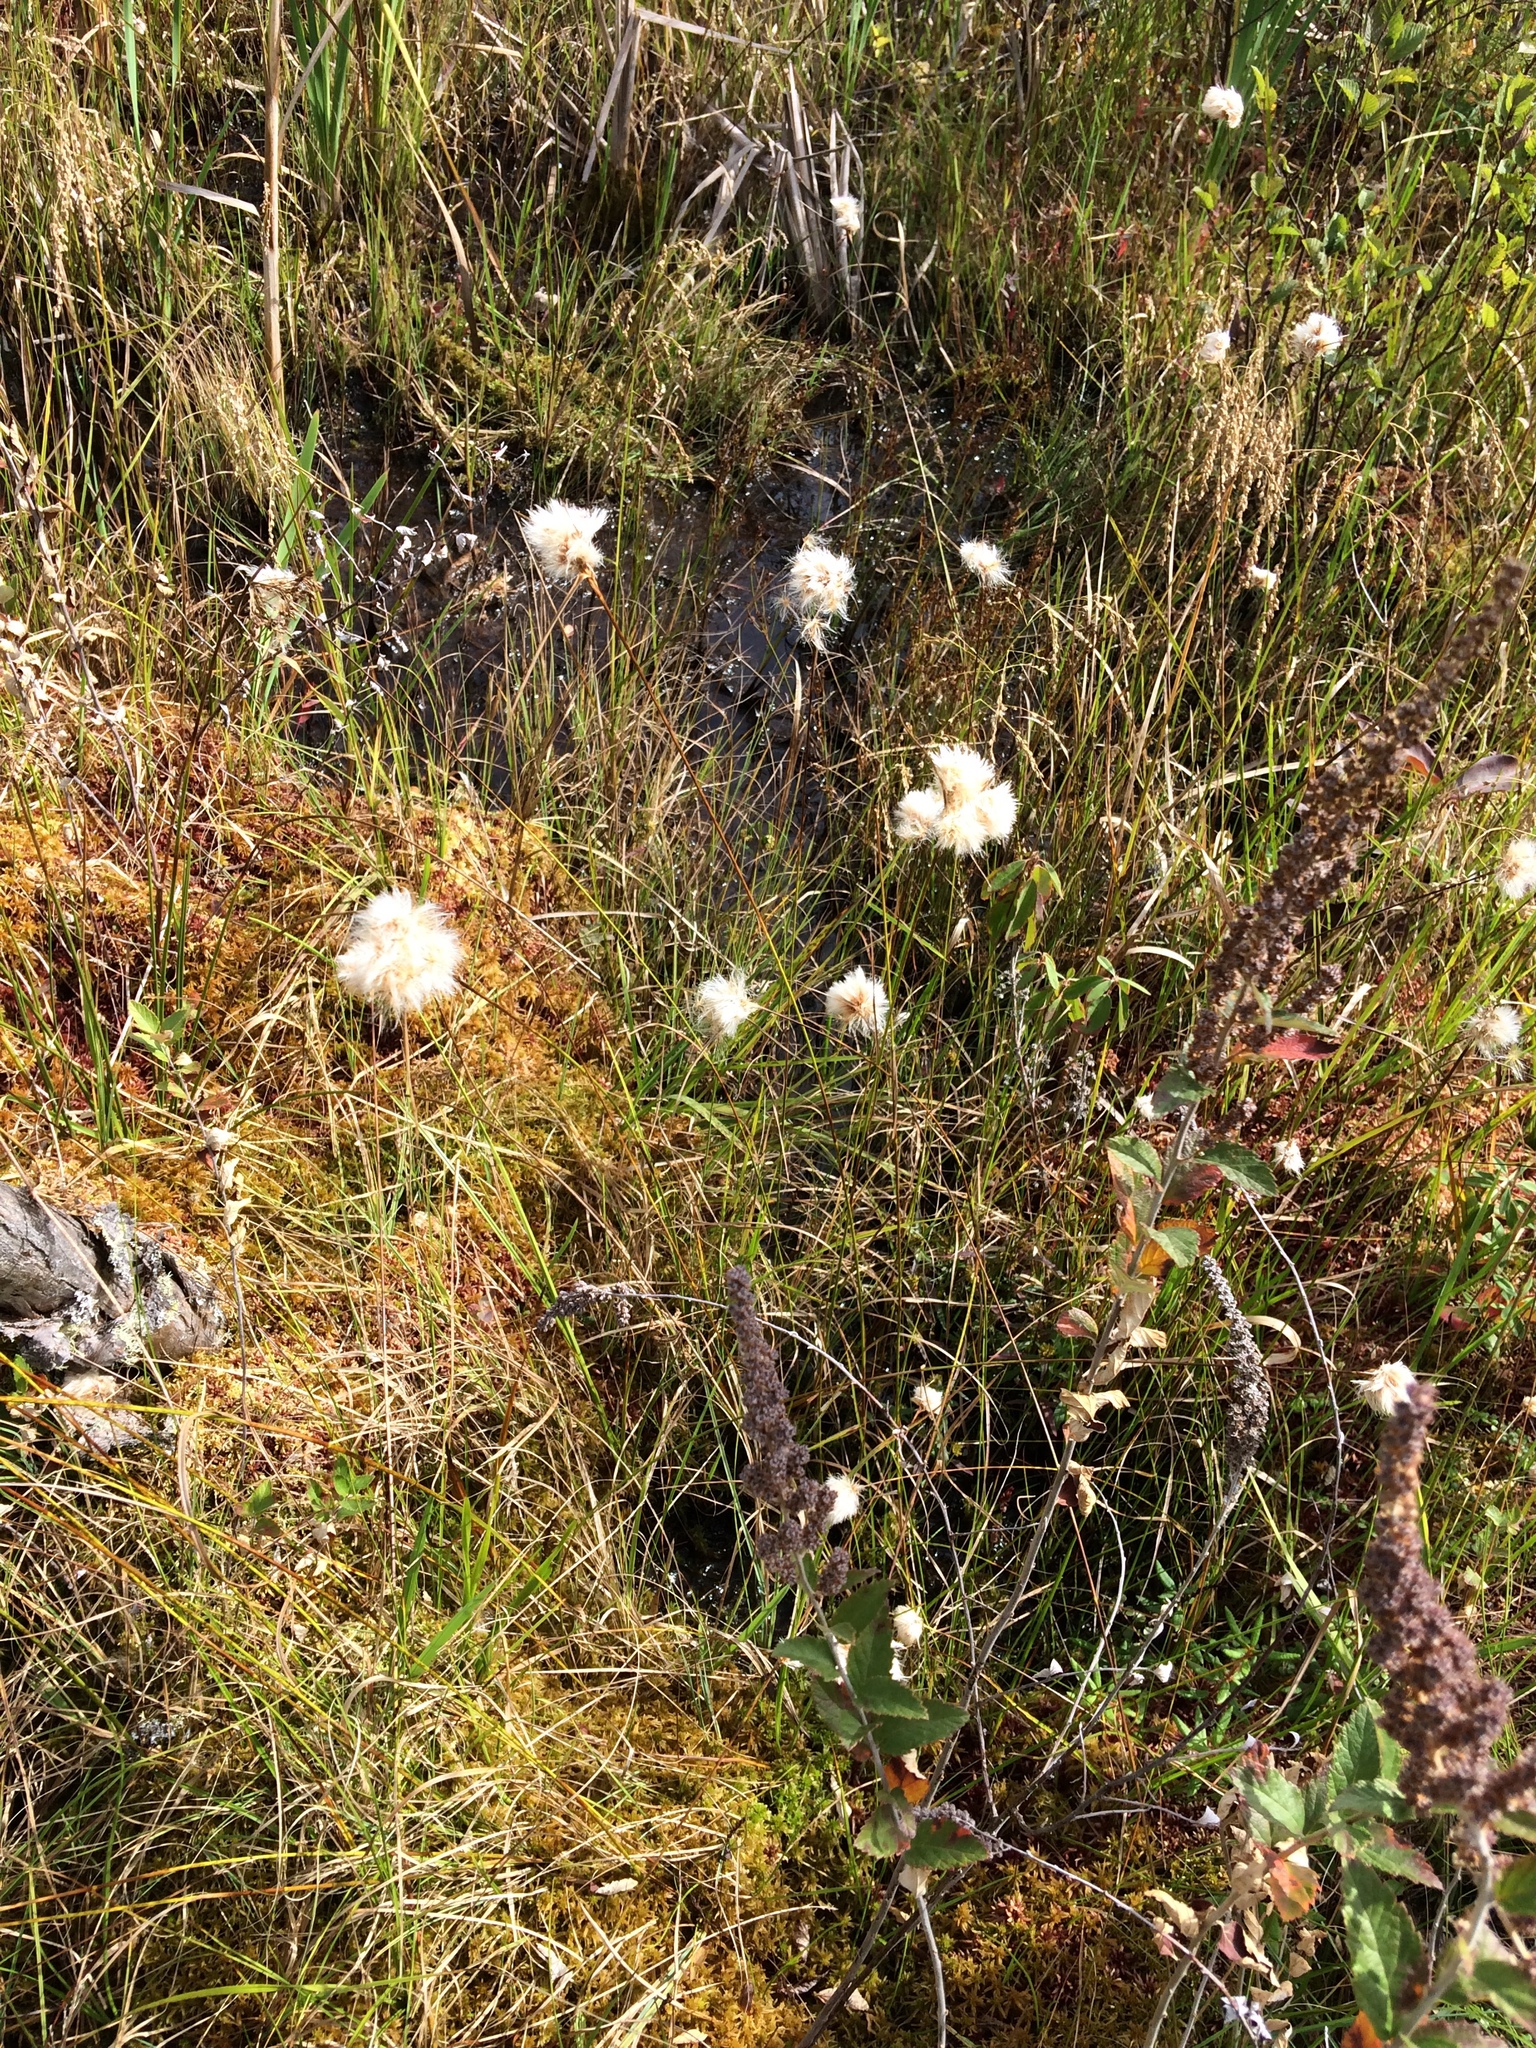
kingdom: Plantae
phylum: Tracheophyta
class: Liliopsida
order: Poales
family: Cyperaceae
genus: Eriophorum
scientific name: Eriophorum virginicum
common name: Tawny cottongrass
